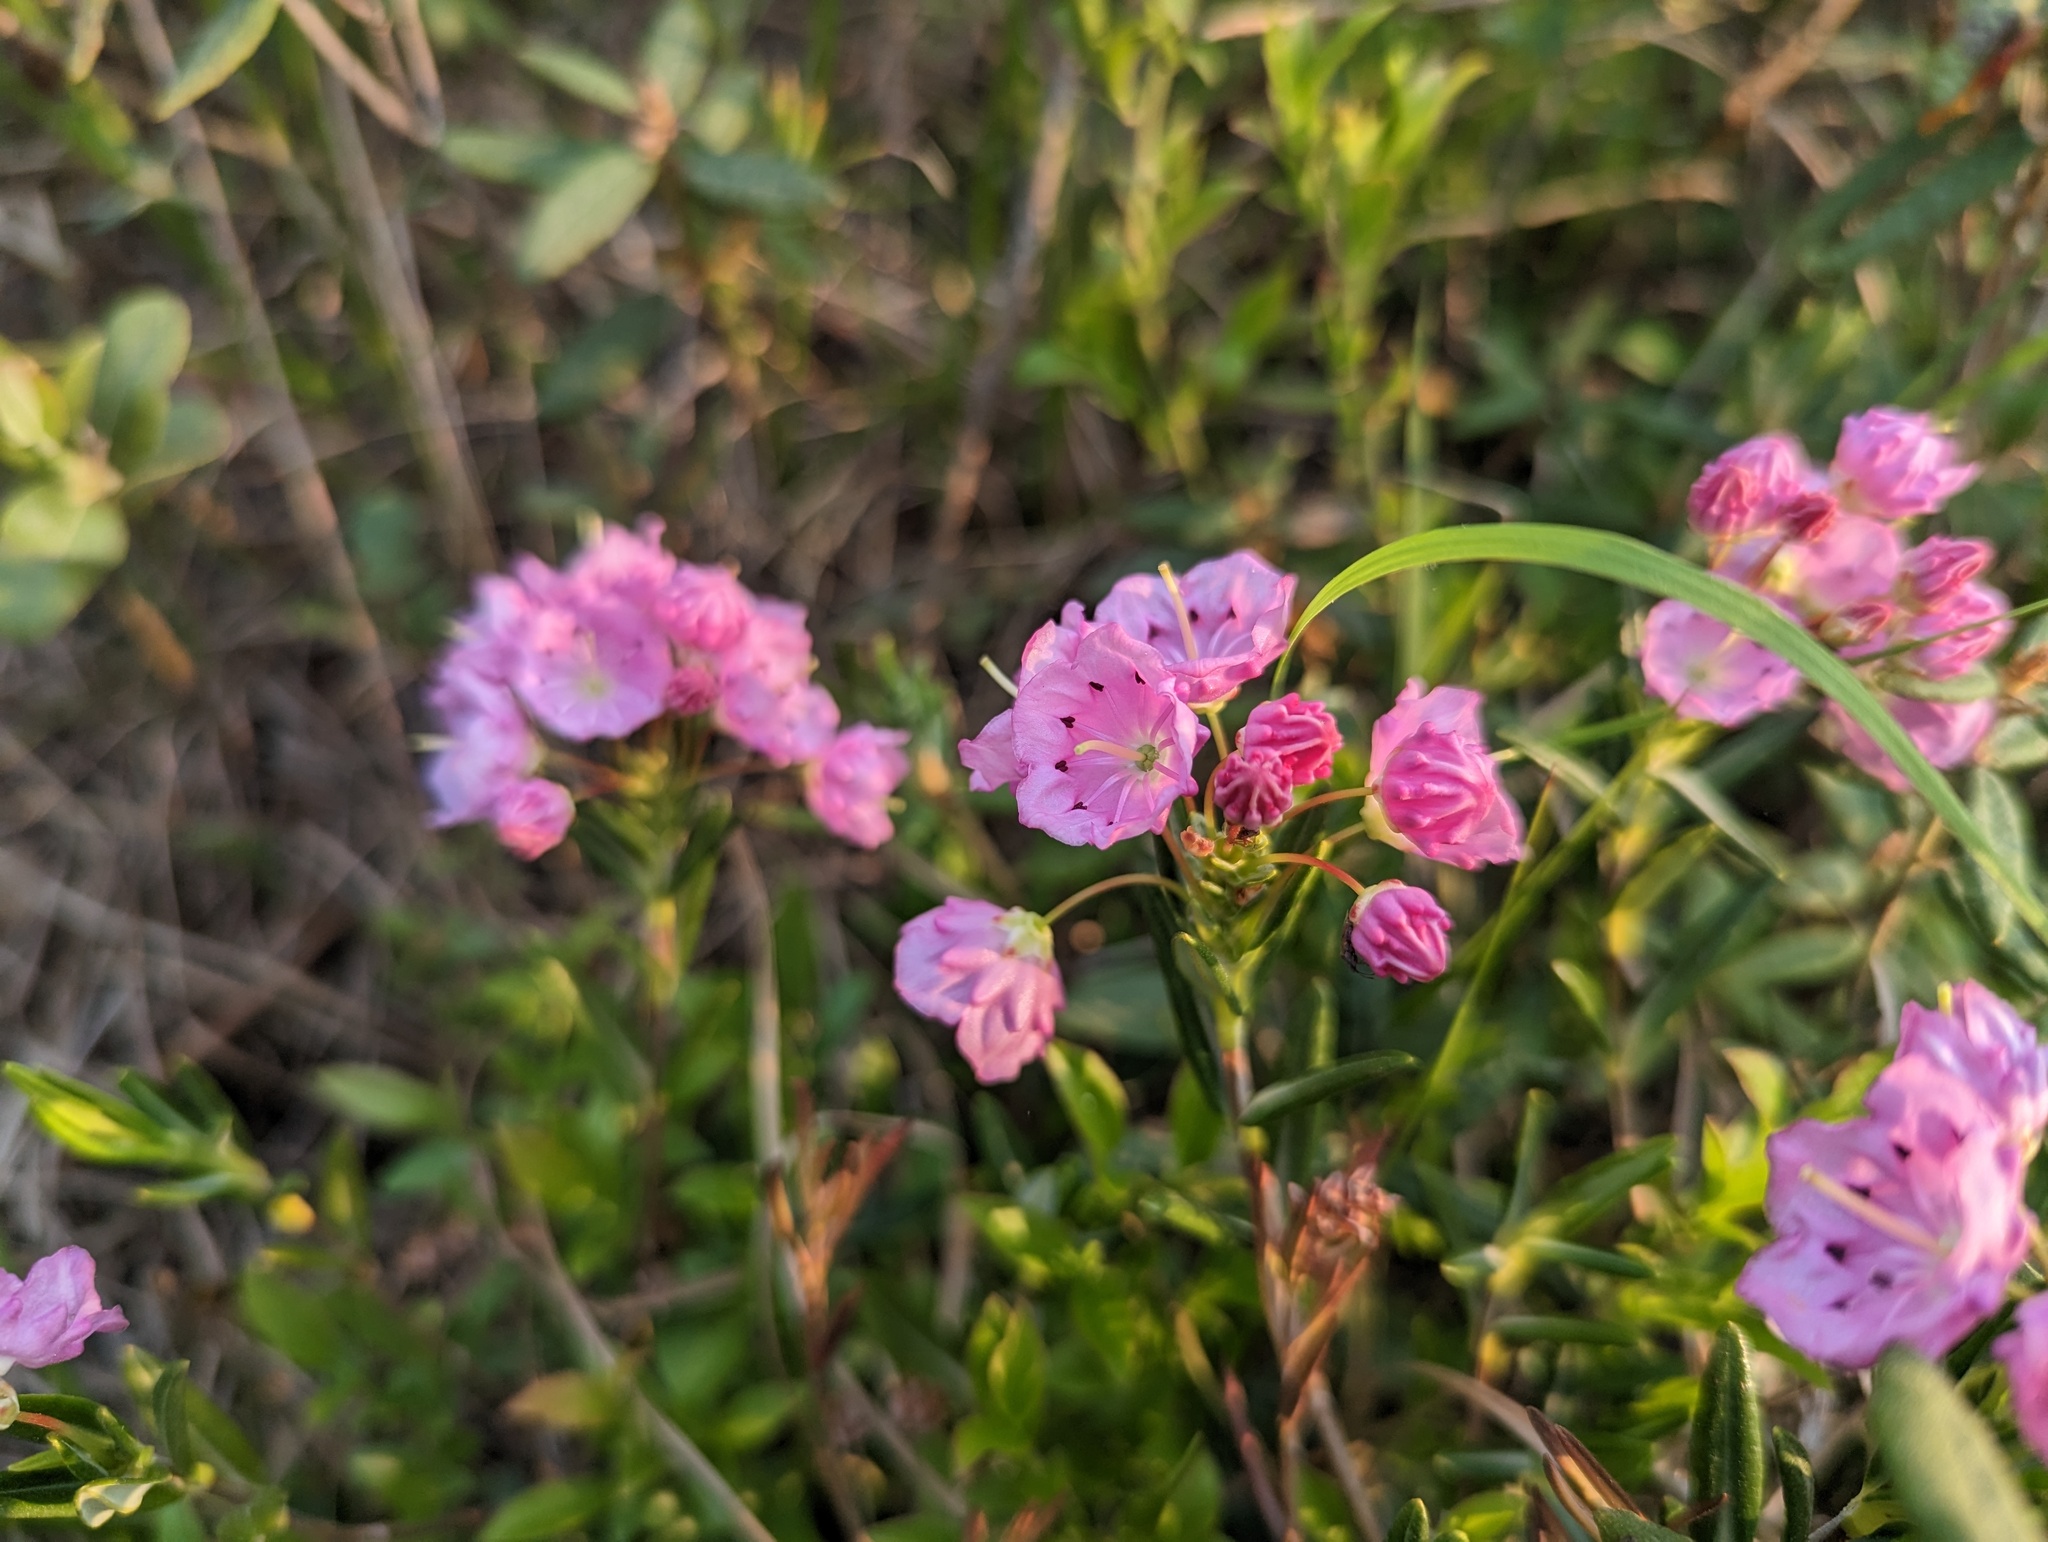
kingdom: Plantae
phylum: Tracheophyta
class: Magnoliopsida
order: Ericales
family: Ericaceae
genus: Kalmia
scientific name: Kalmia polifolia
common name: Bog-laurel
